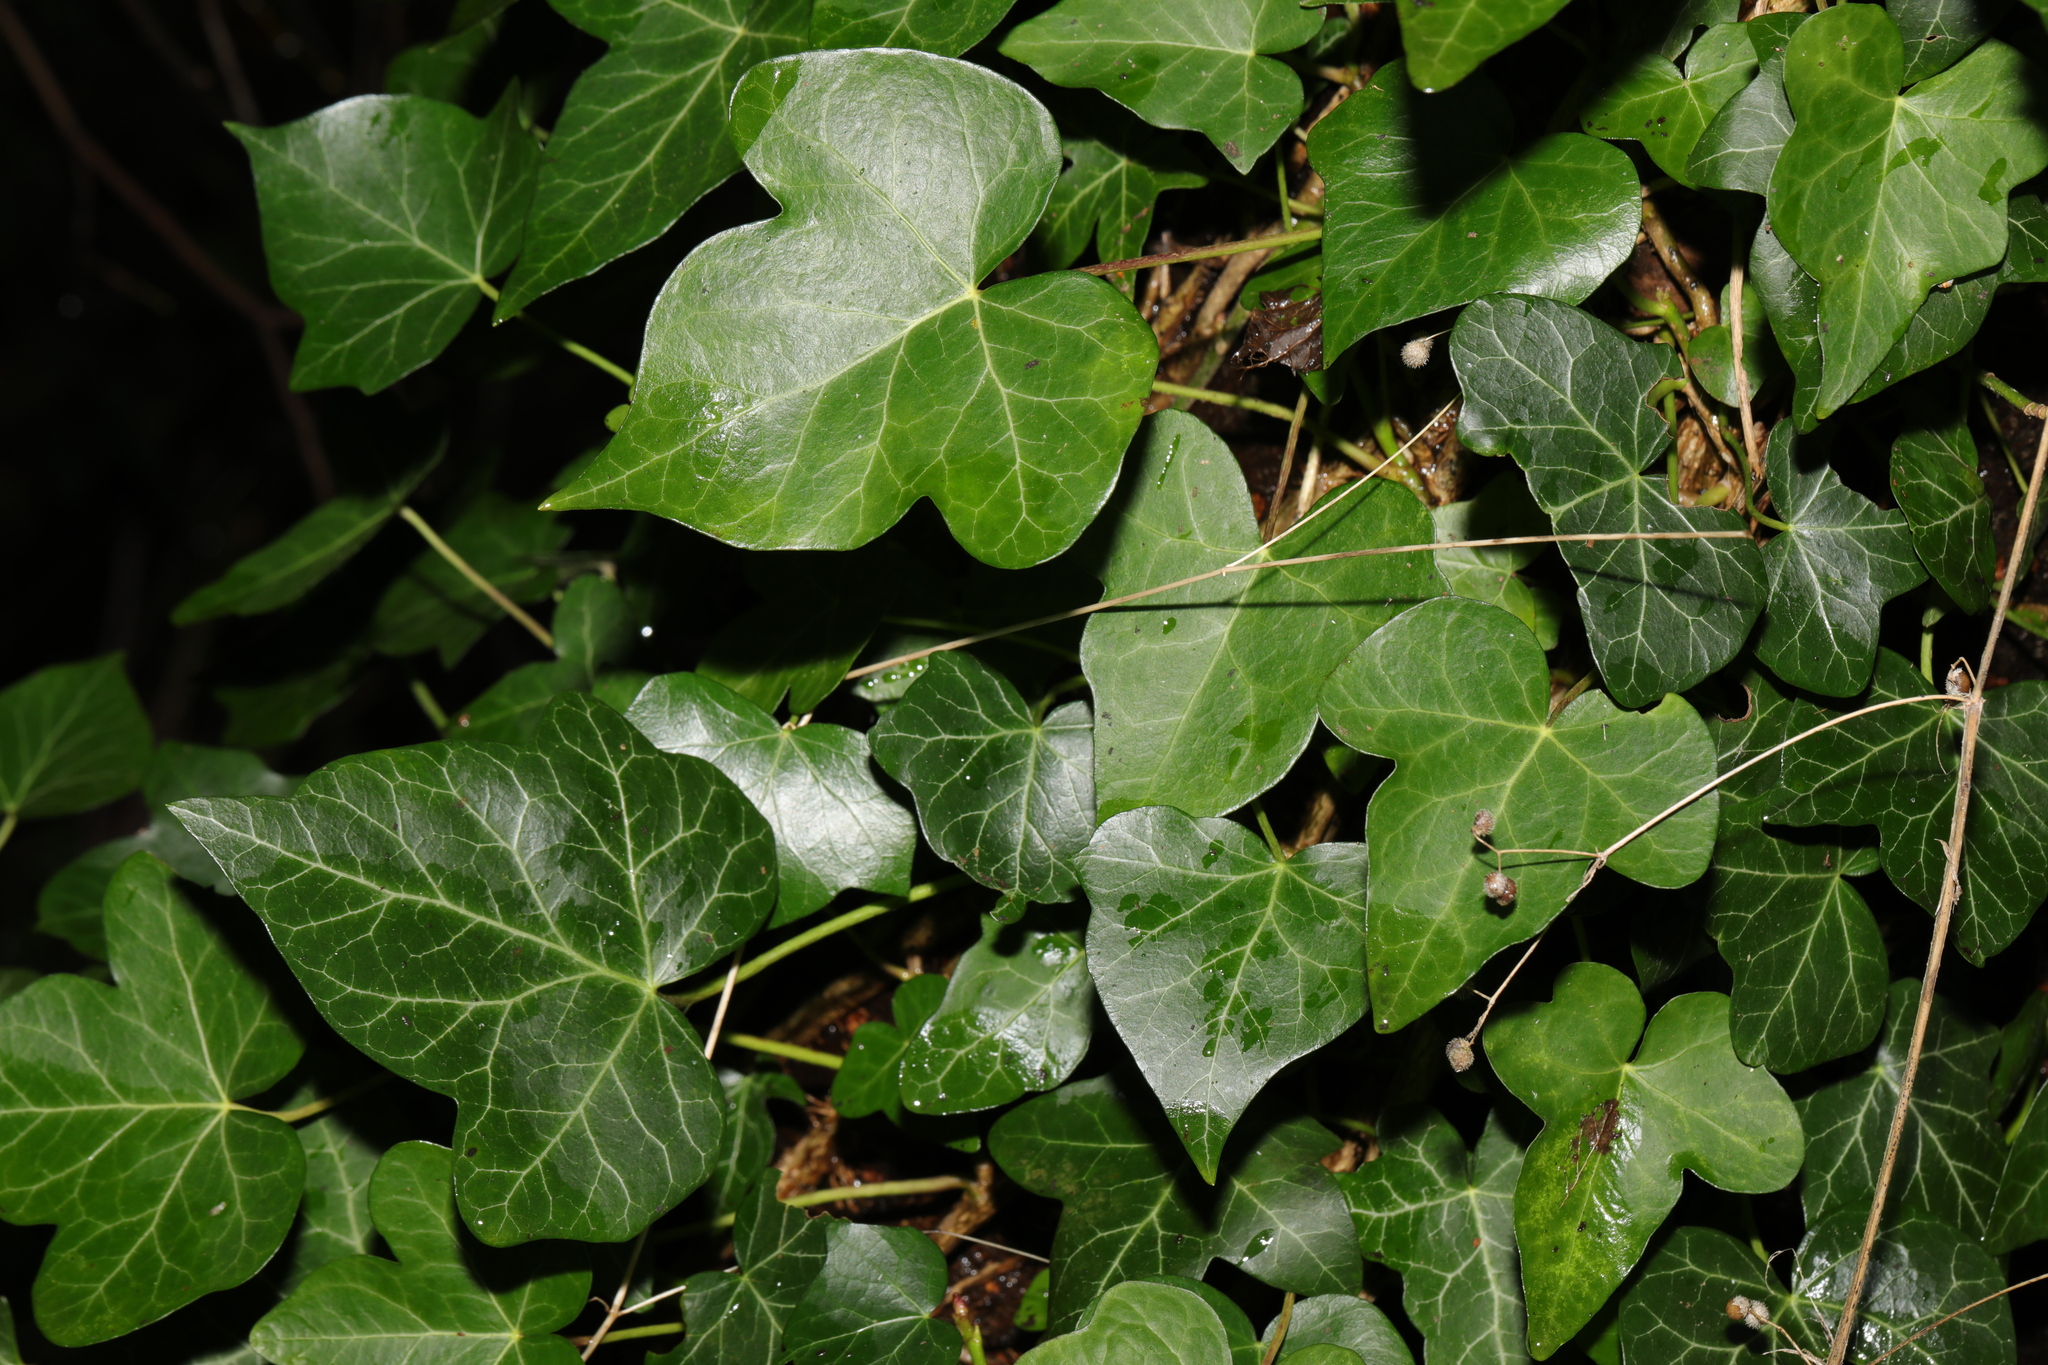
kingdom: Plantae
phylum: Tracheophyta
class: Magnoliopsida
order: Apiales
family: Araliaceae
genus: Hedera
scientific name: Hedera helix
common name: Ivy
